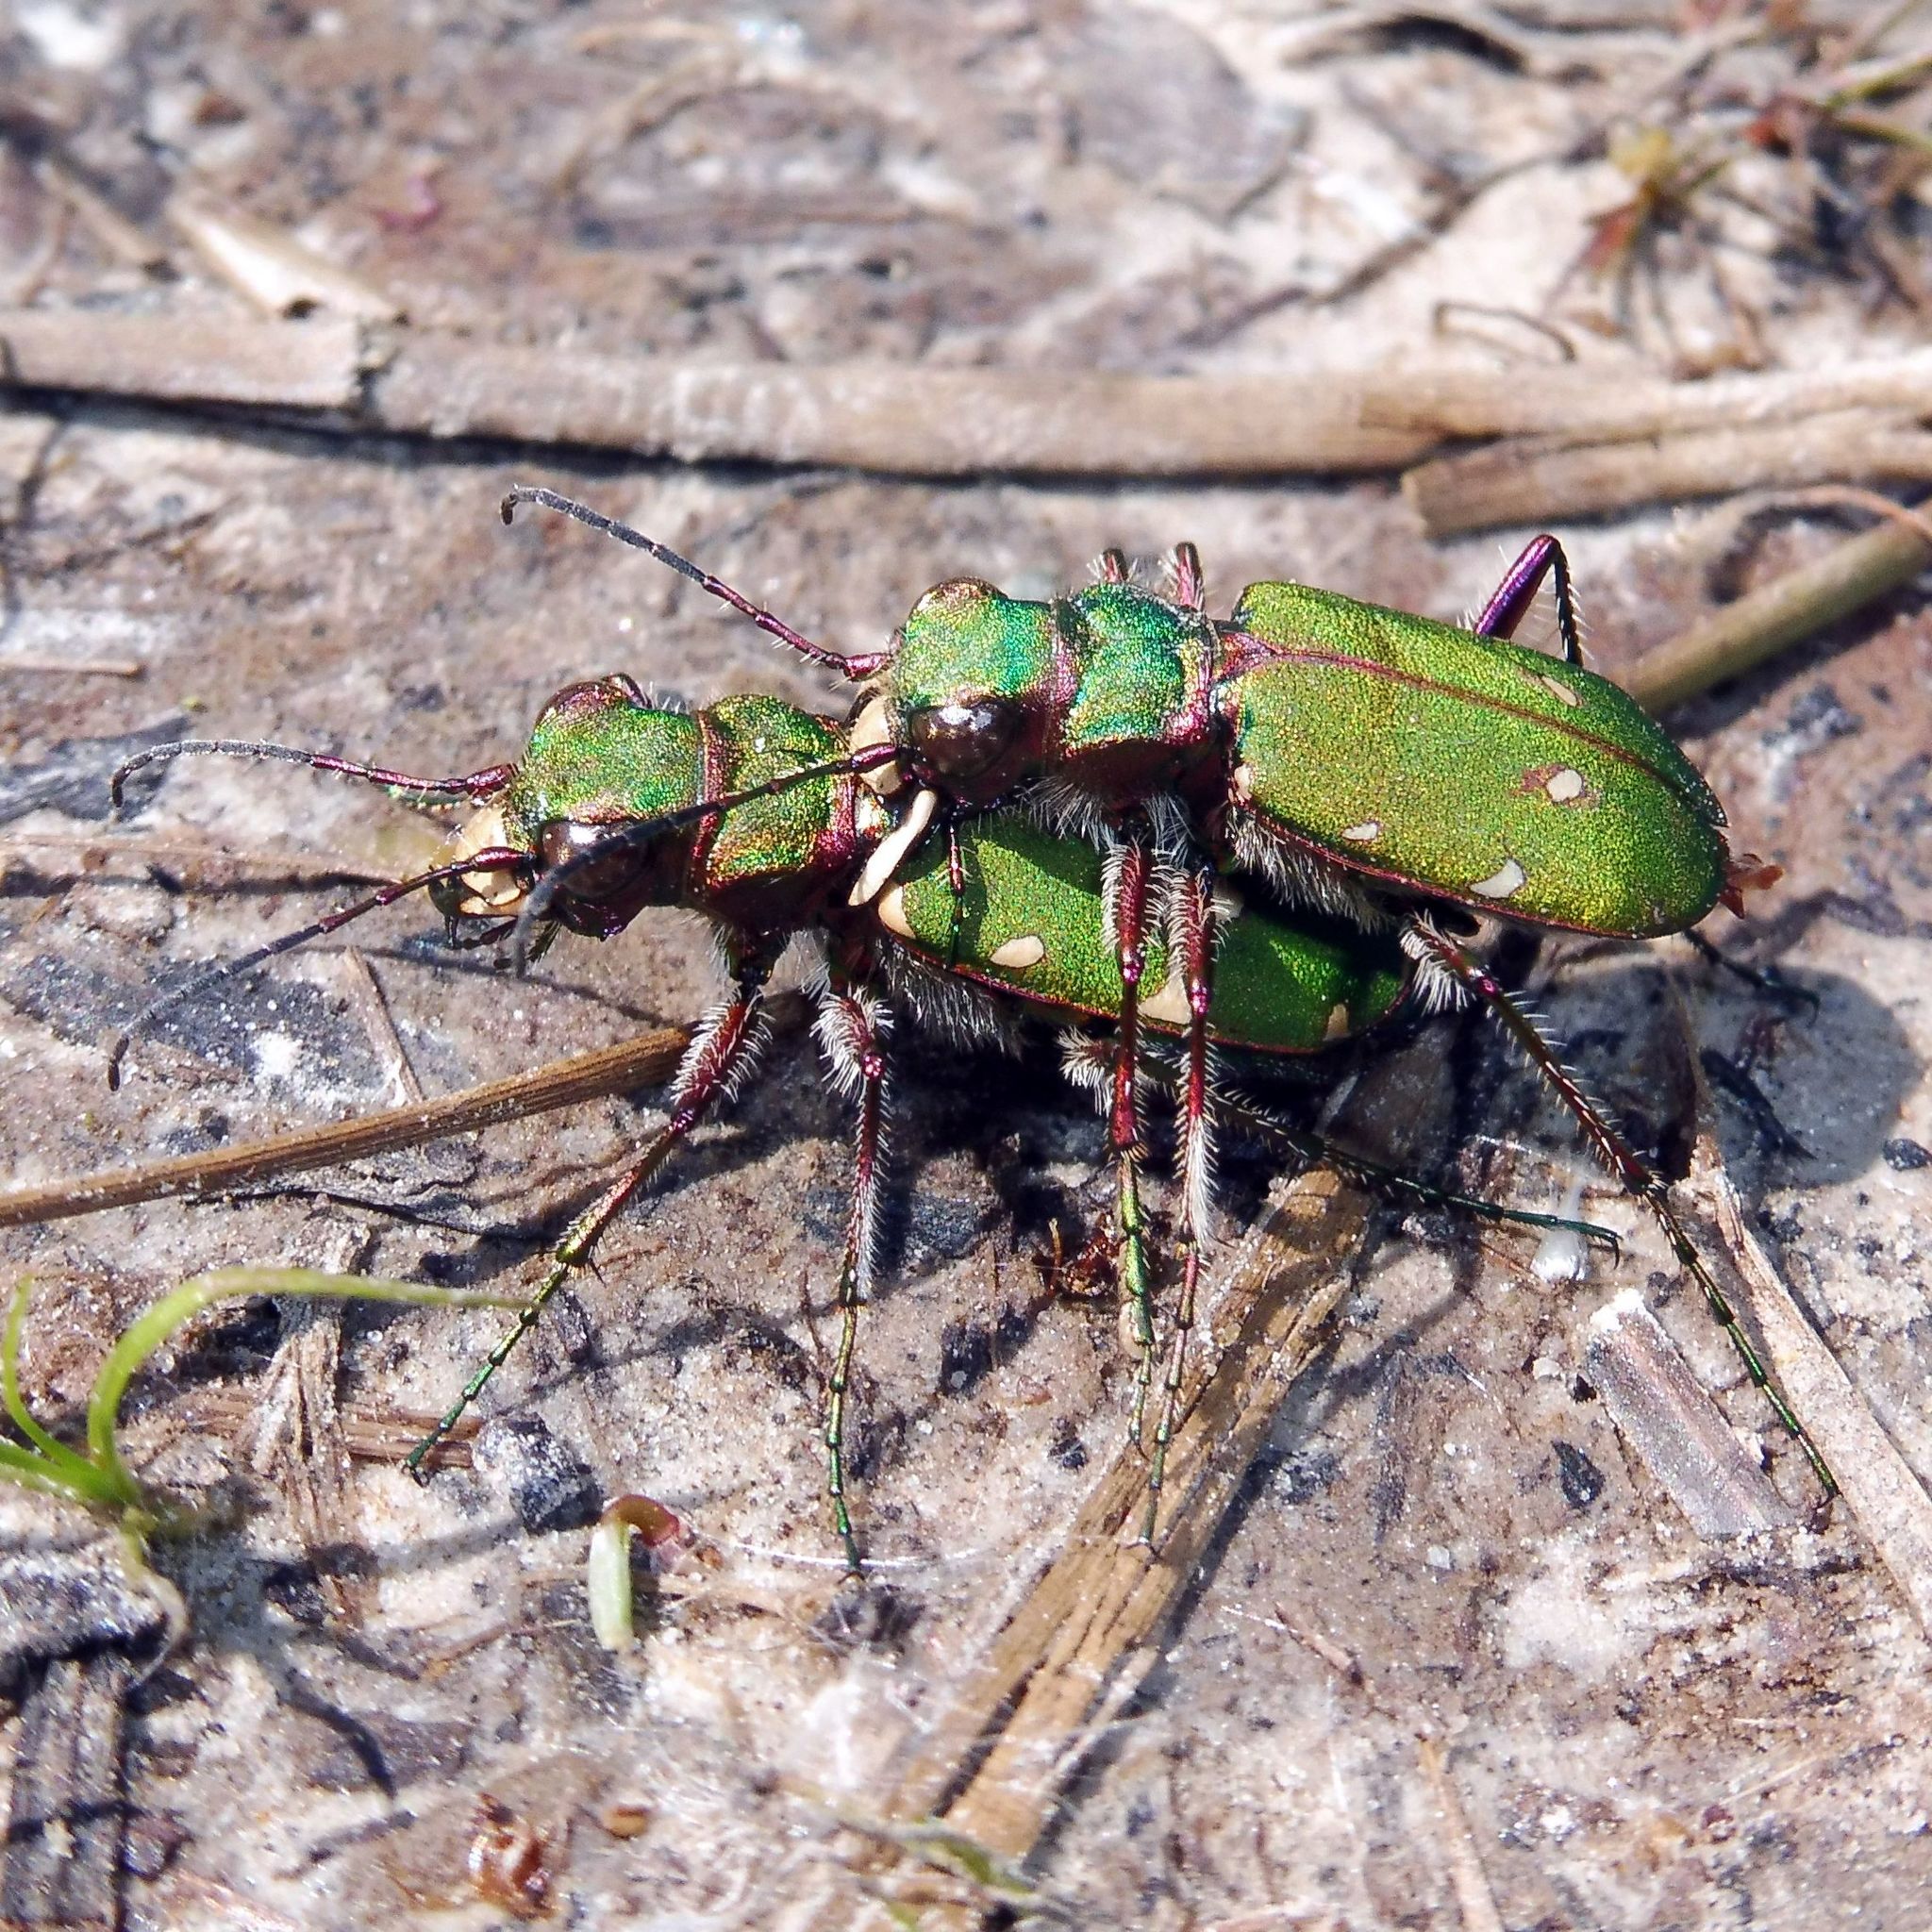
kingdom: Animalia
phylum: Arthropoda
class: Insecta
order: Coleoptera
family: Carabidae
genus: Cicindela
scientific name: Cicindela campestris
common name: Common tiger beetle
